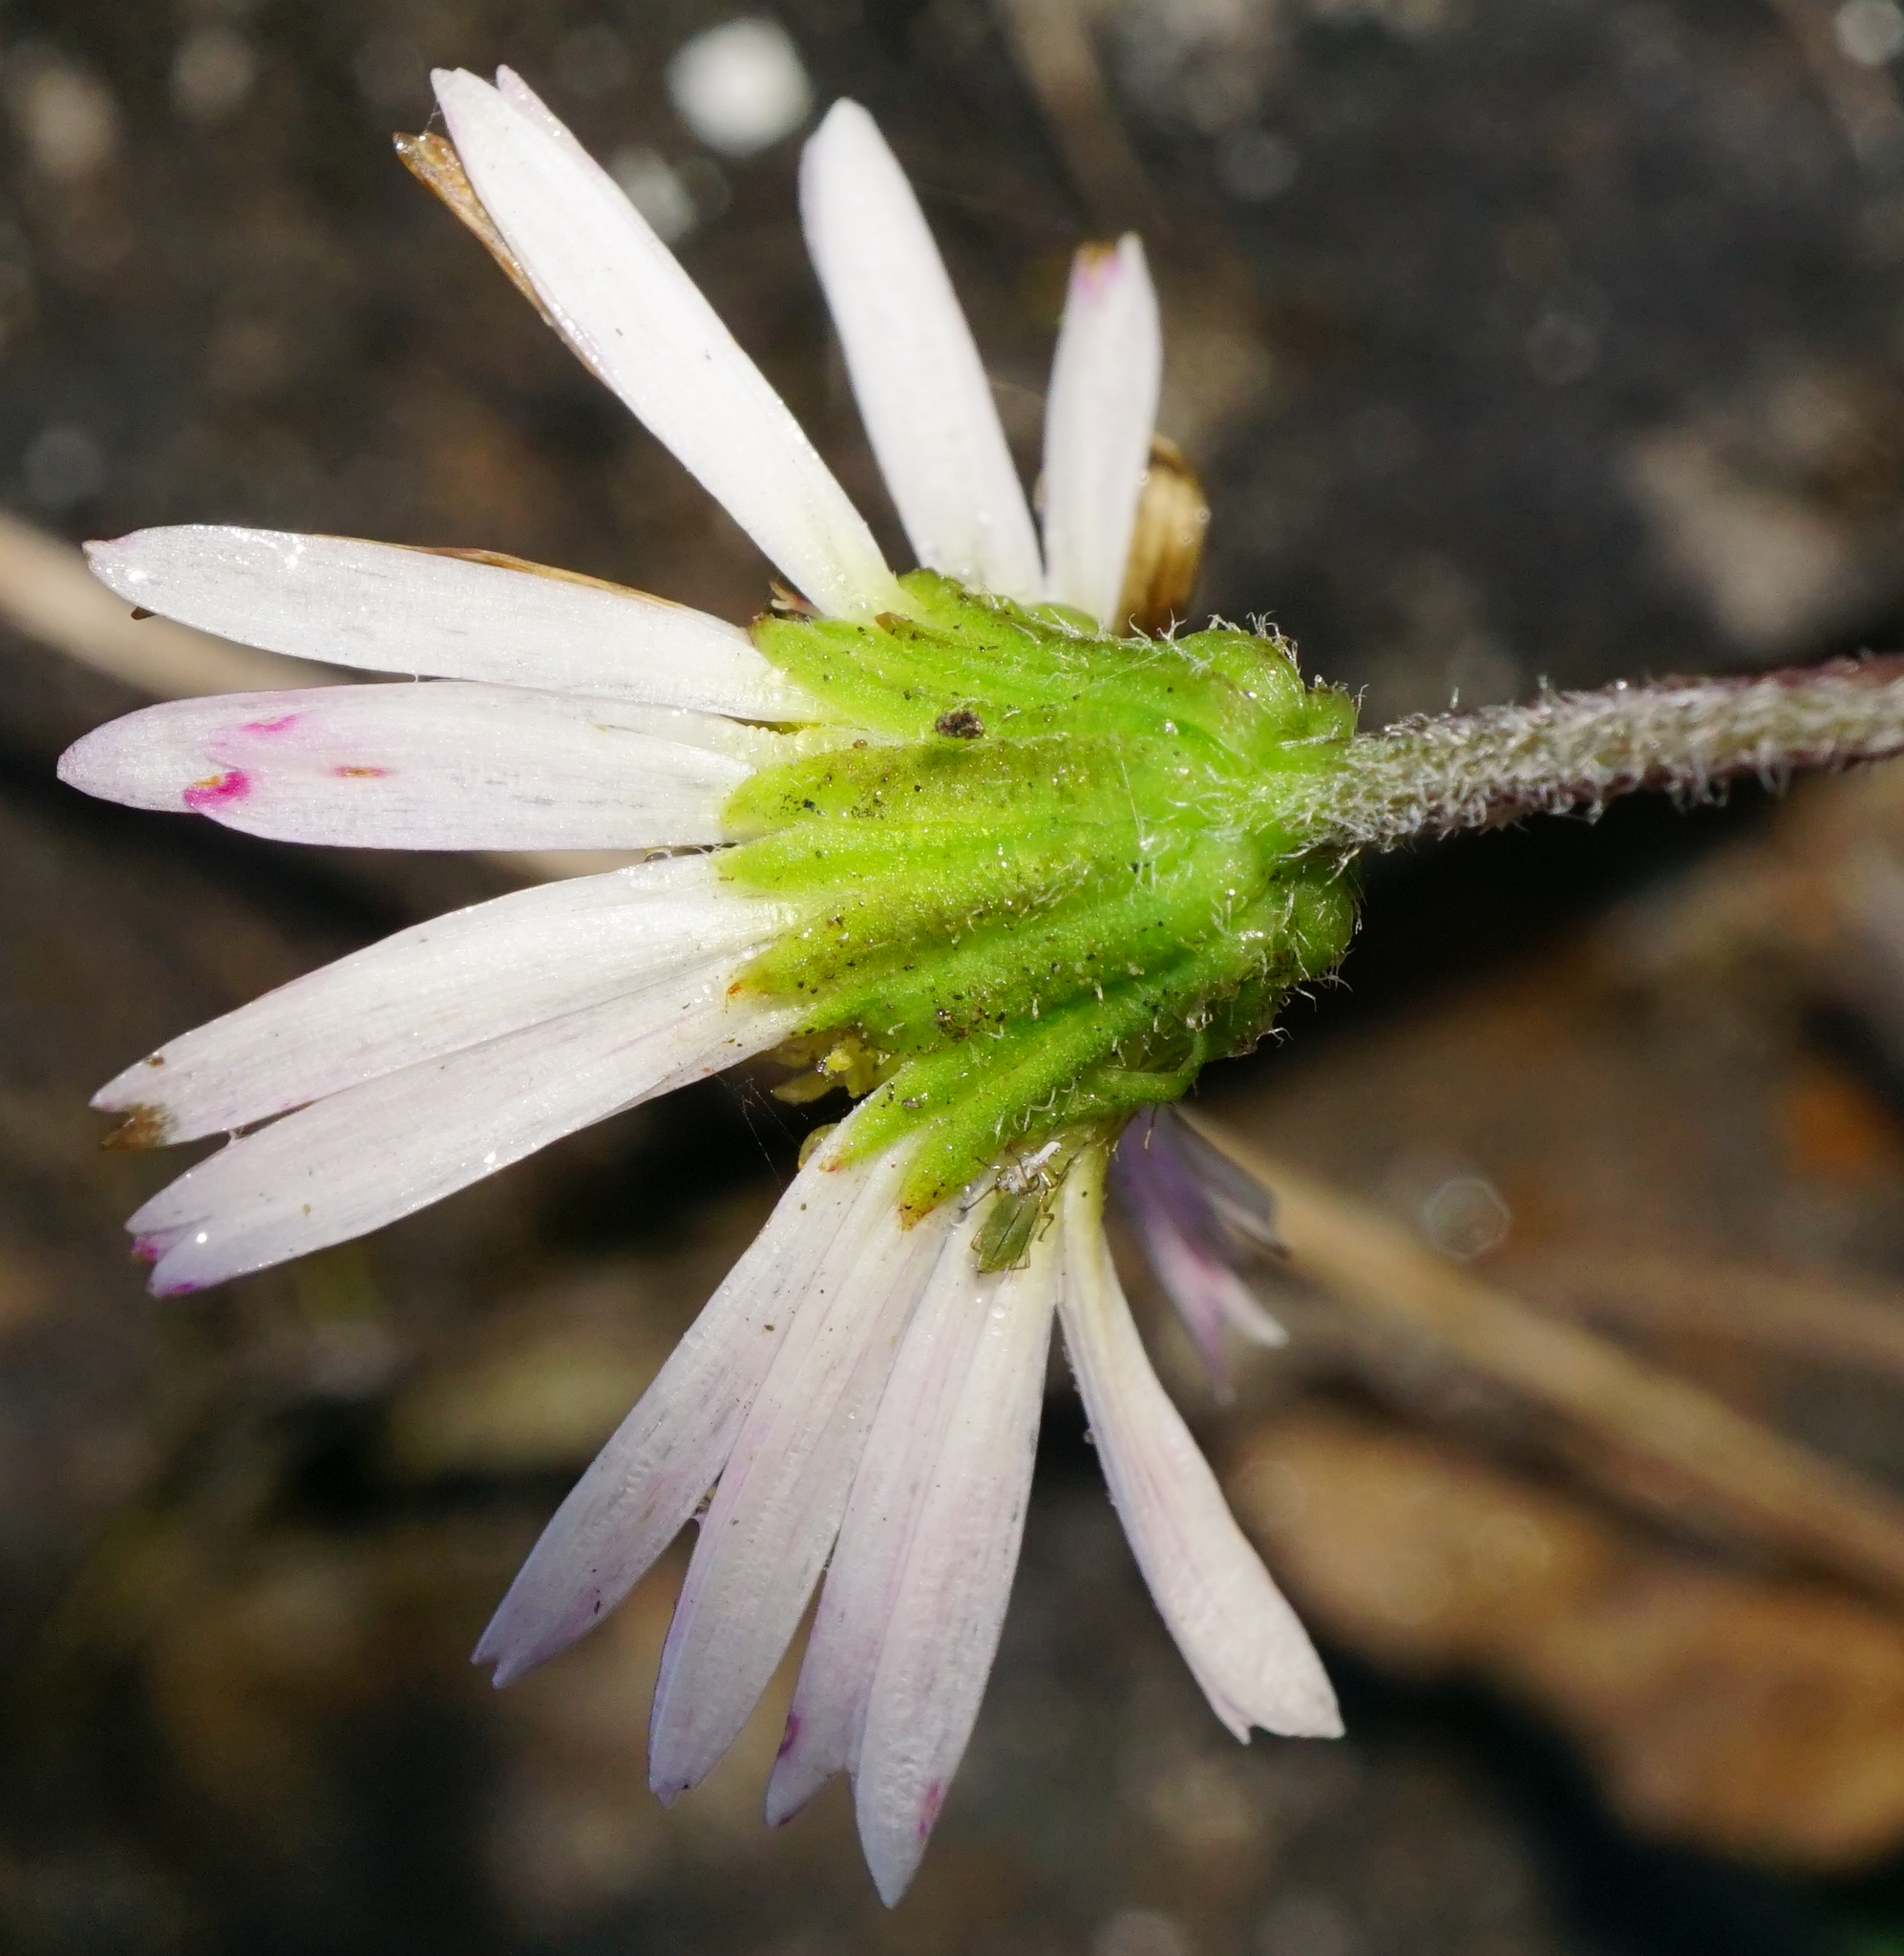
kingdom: Plantae
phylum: Tracheophyta
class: Magnoliopsida
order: Asterales
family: Asteraceae
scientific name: Asteraceae
